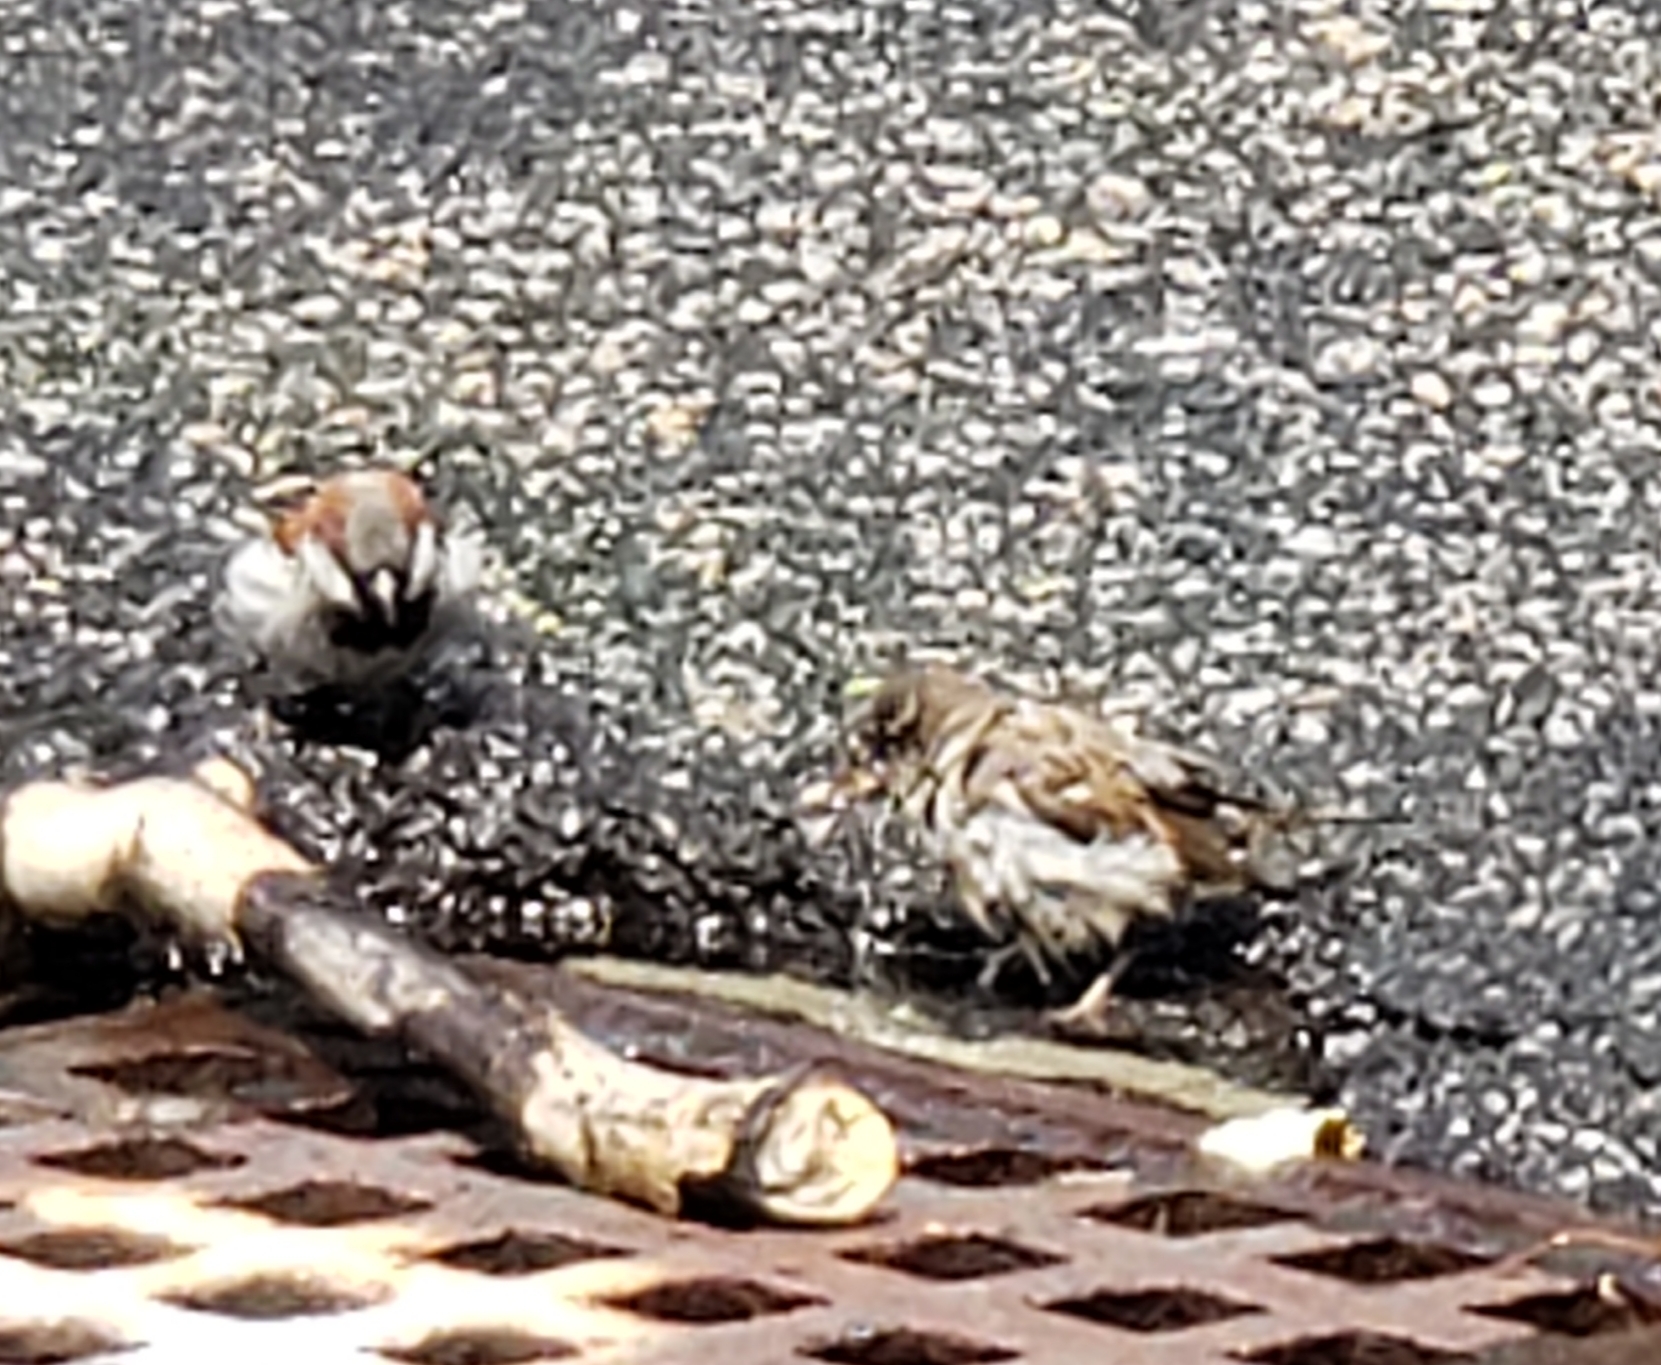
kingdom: Animalia
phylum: Chordata
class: Aves
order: Passeriformes
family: Passeridae
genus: Passer
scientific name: Passer domesticus
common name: House sparrow
